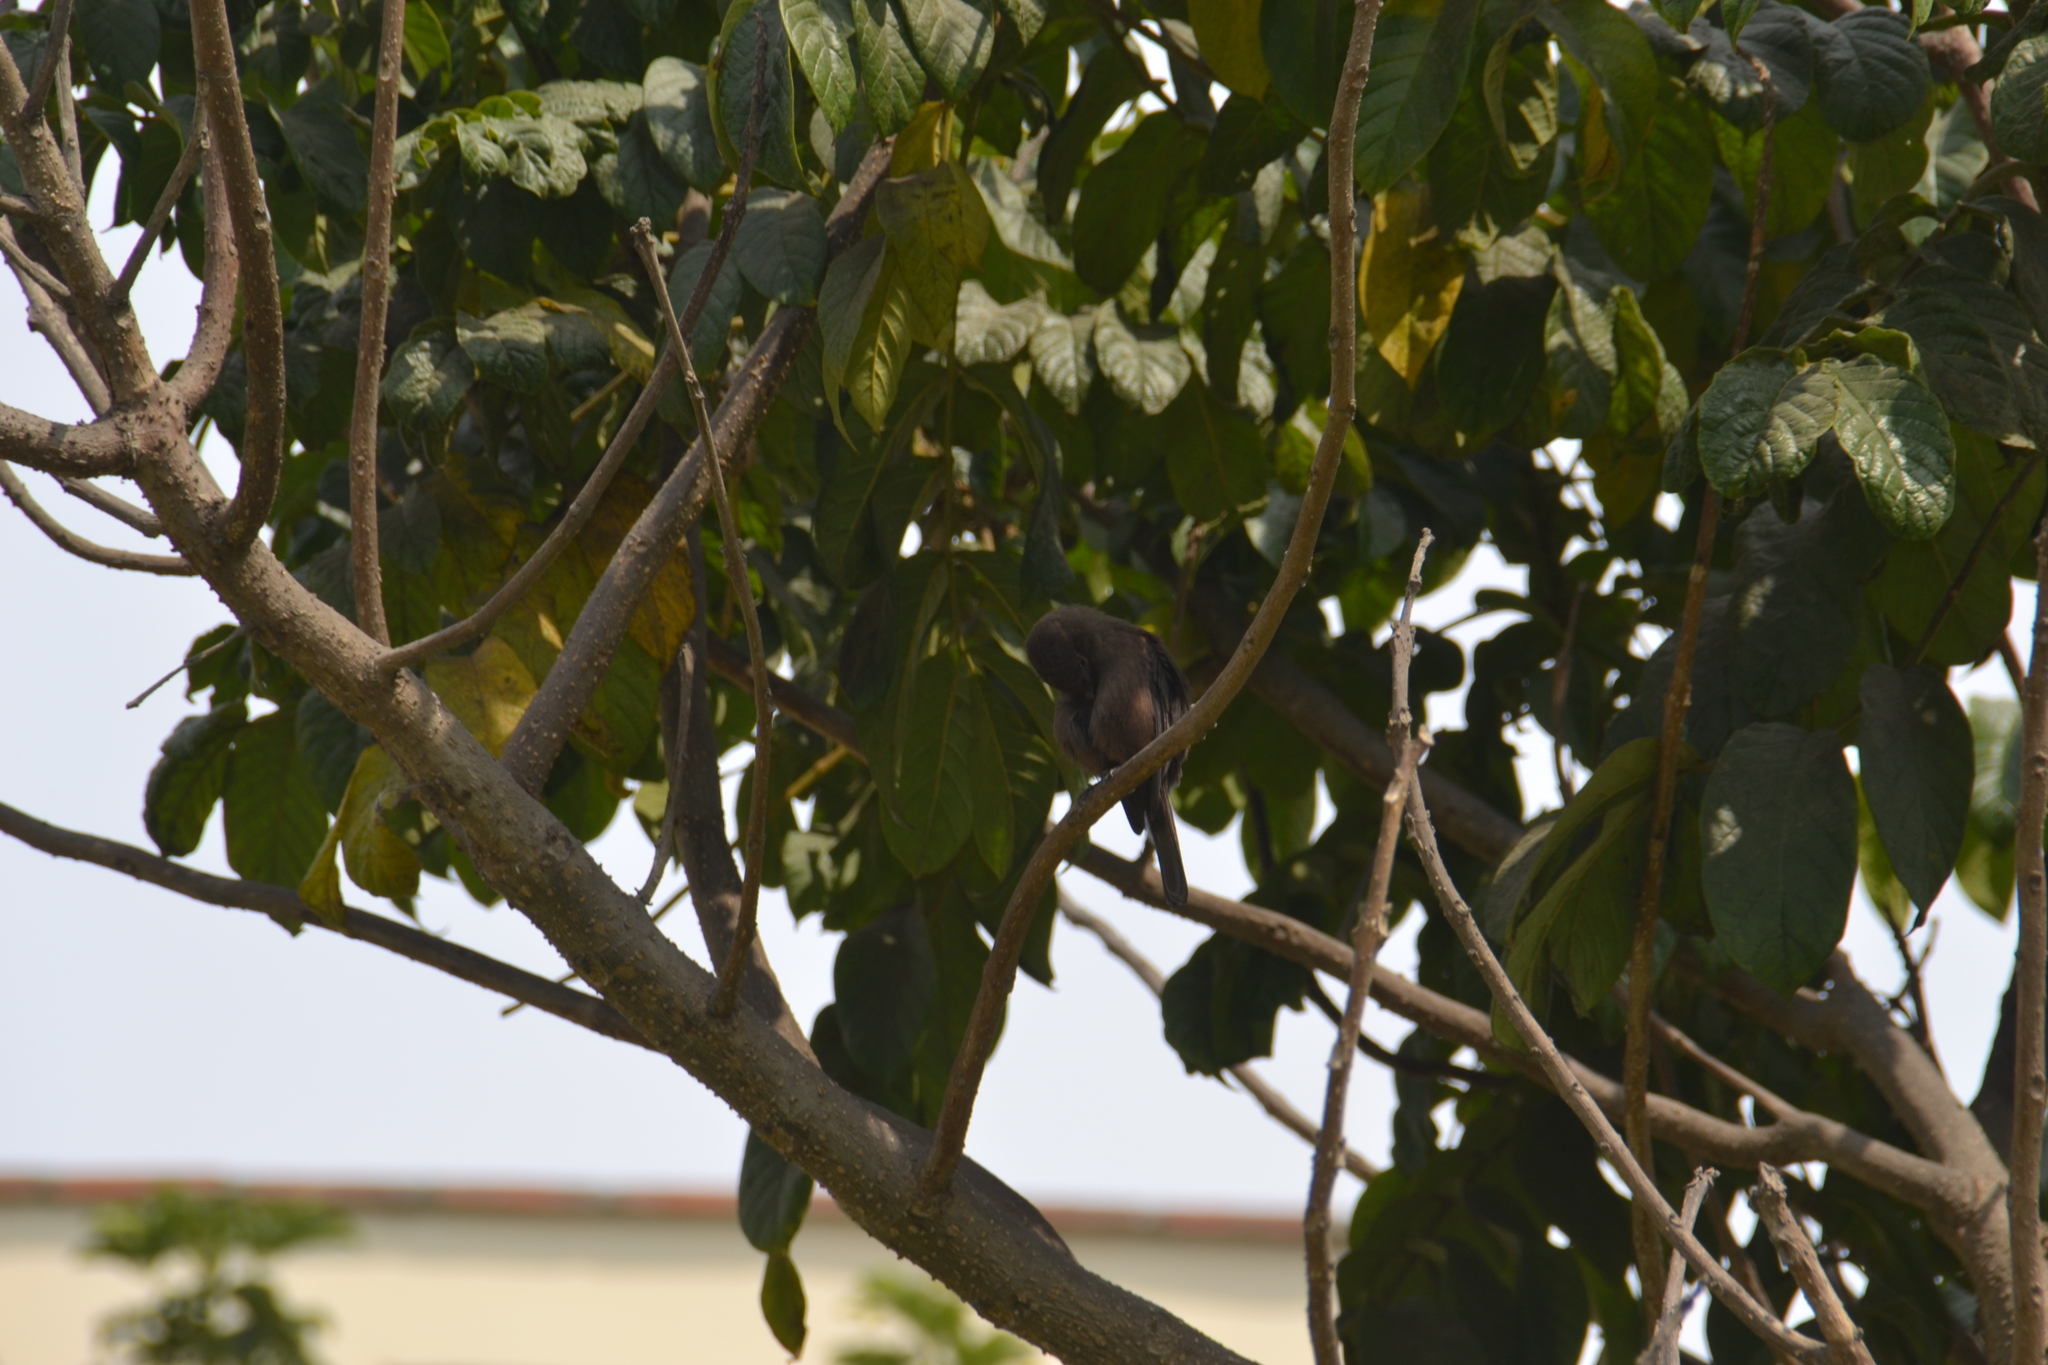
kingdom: Animalia
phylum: Chordata
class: Aves
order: Passeriformes
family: Tyrannidae
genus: Pyrocephalus
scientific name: Pyrocephalus rubinus
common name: Vermilion flycatcher
